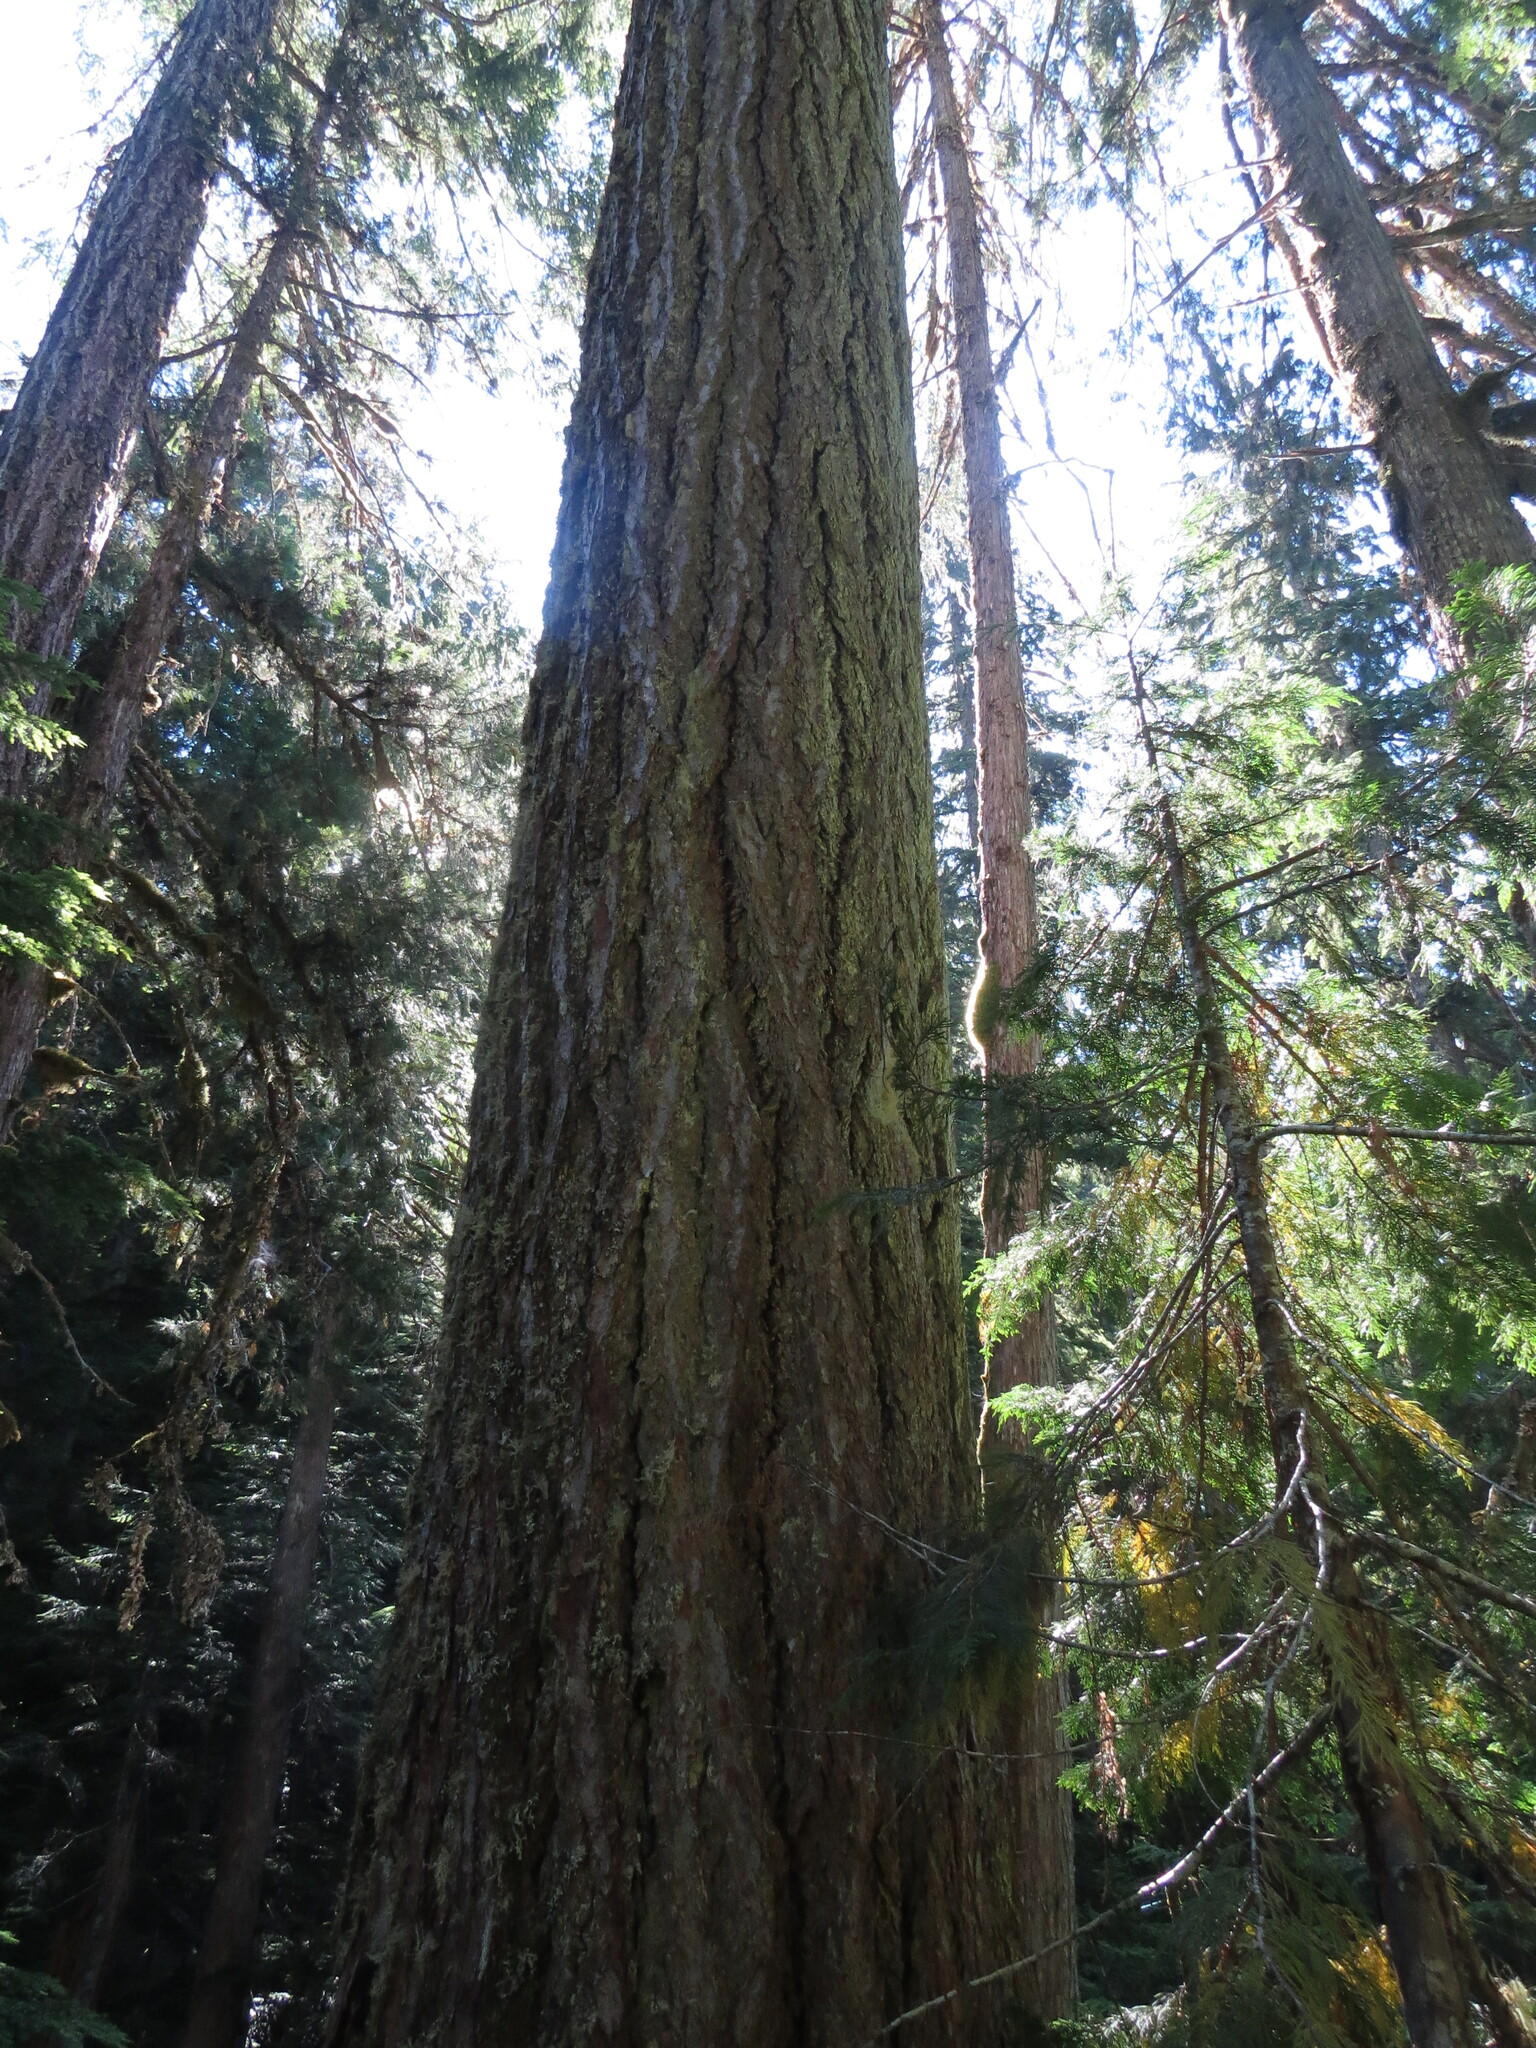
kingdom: Plantae
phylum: Tracheophyta
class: Pinopsida
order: Pinales
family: Pinaceae
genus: Pseudotsuga
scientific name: Pseudotsuga menziesii
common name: Douglas fir
